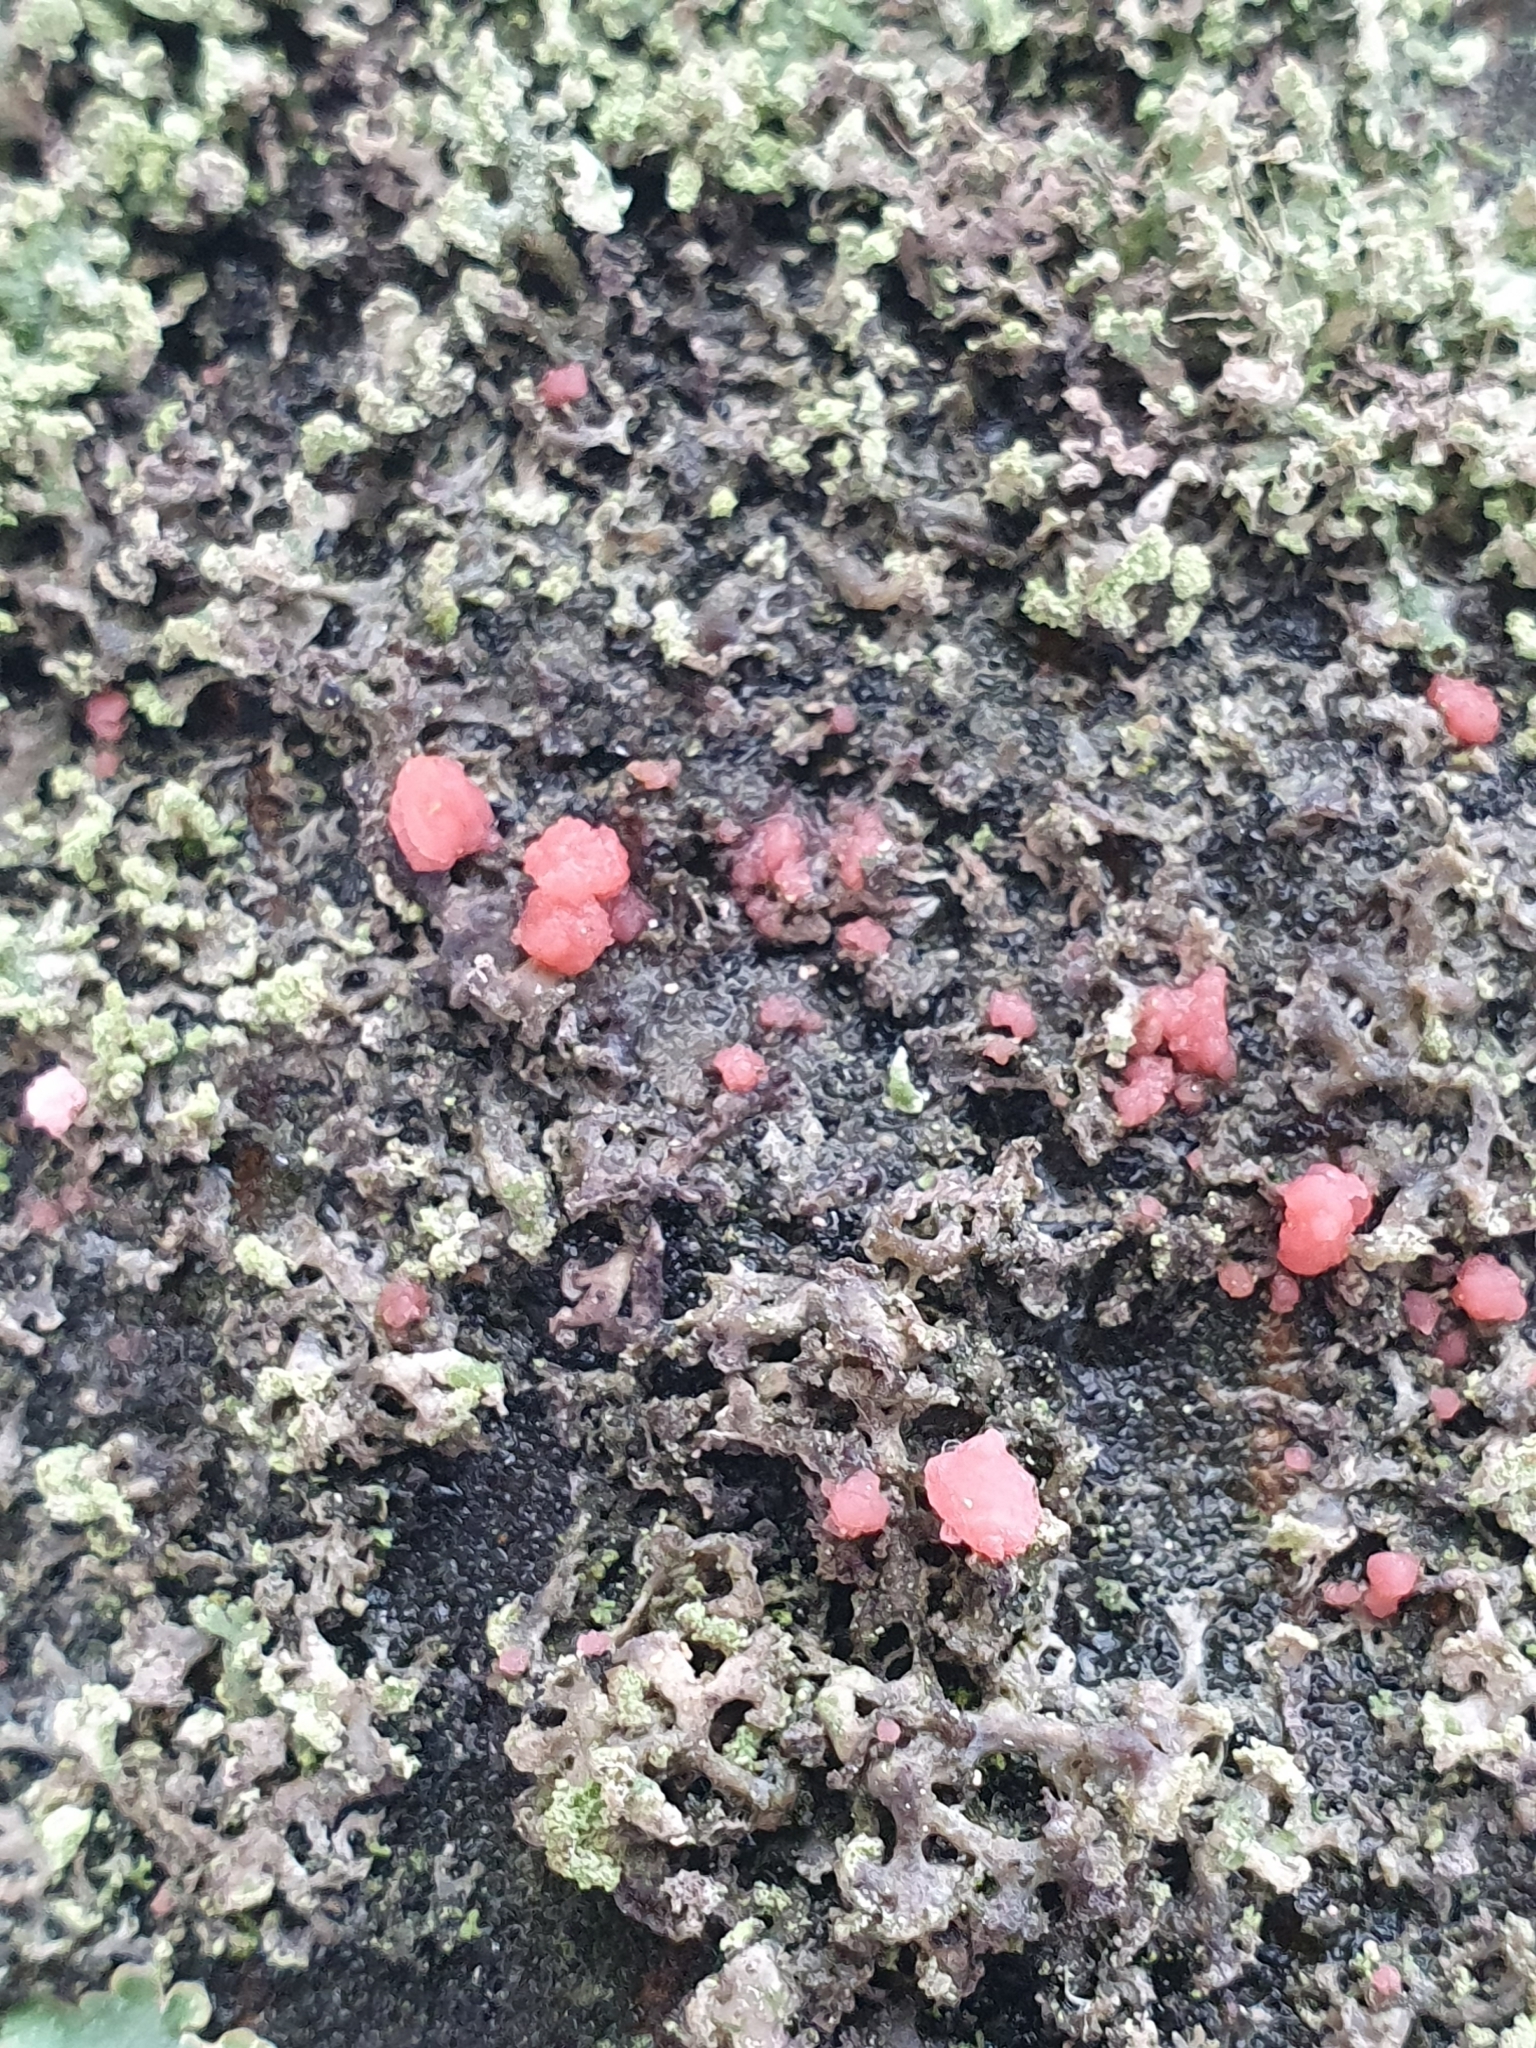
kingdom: Fungi
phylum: Ascomycota
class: Sordariomycetes
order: Hypocreales
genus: Illosporiopsis
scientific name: Illosporiopsis christiansenii
